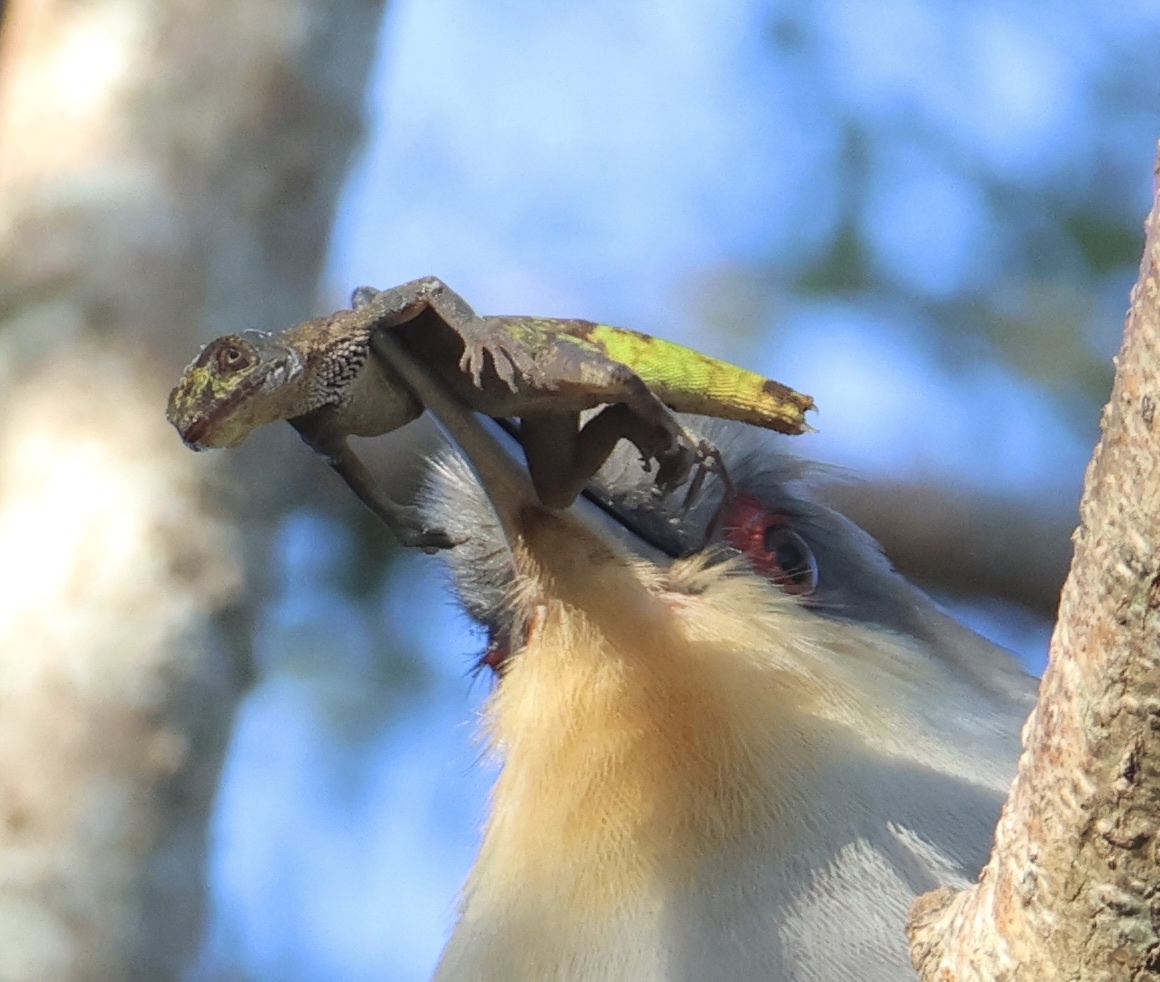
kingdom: Animalia
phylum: Chordata
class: Aves
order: Cuculiformes
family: Cuculidae
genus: Saurothera
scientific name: Saurothera longirostris
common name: Hispaniolan lizard-cuckoo
